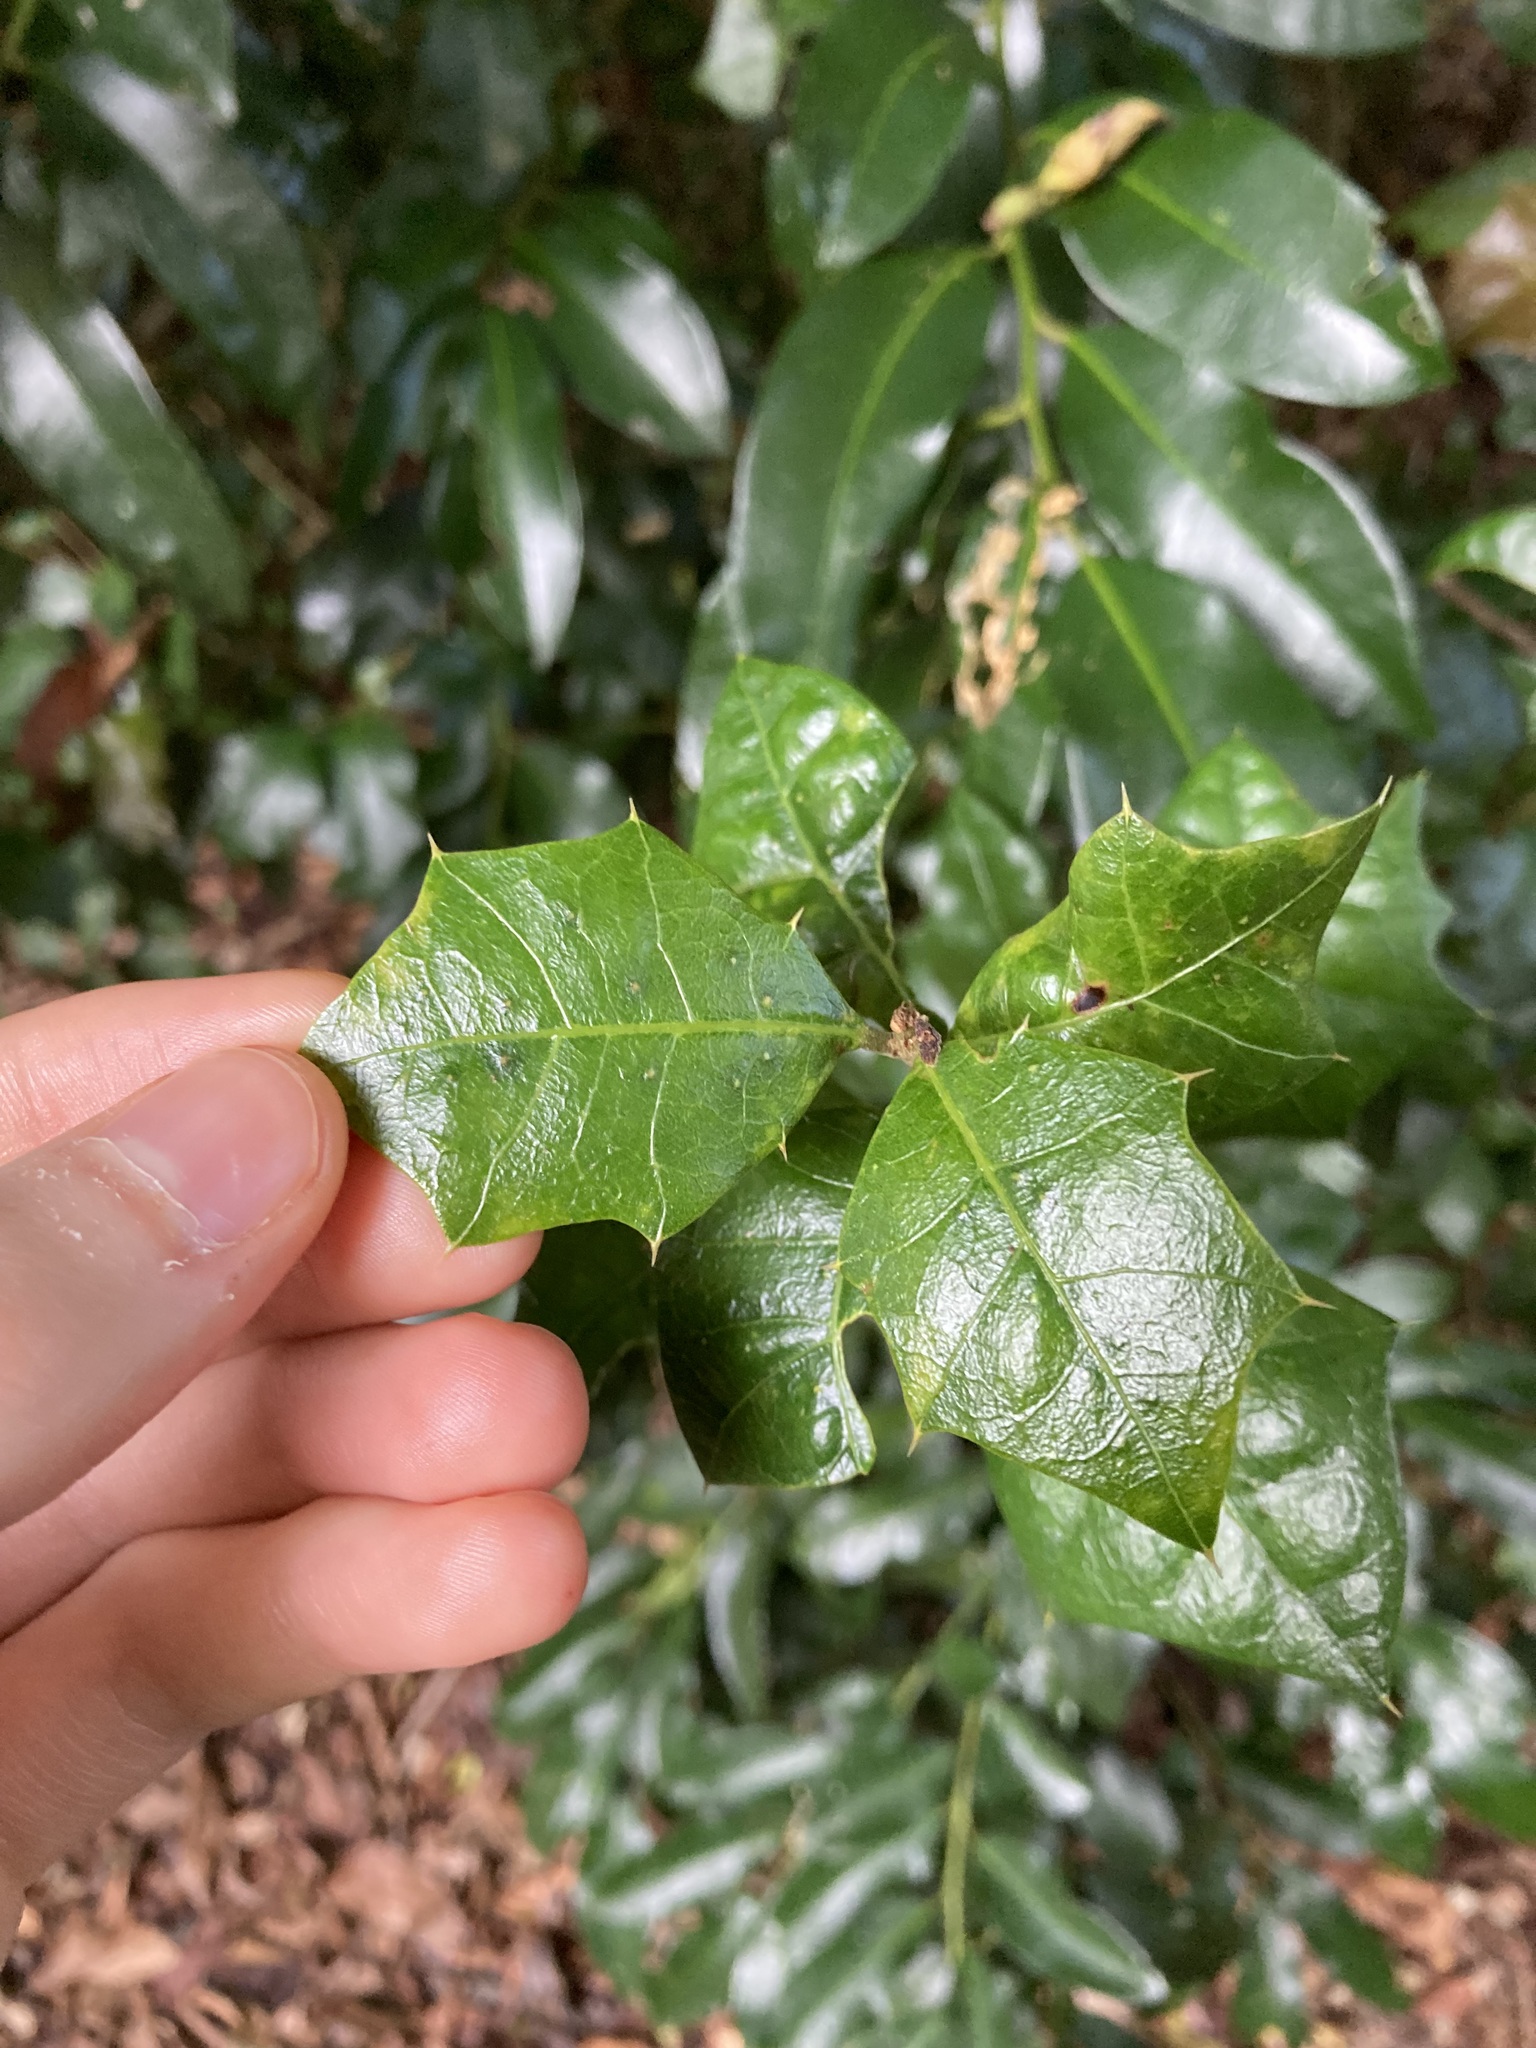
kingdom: Plantae
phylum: Tracheophyta
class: Magnoliopsida
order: Malpighiales
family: Euphorbiaceae
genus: Alchornea
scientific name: Alchornea ilicifolia
